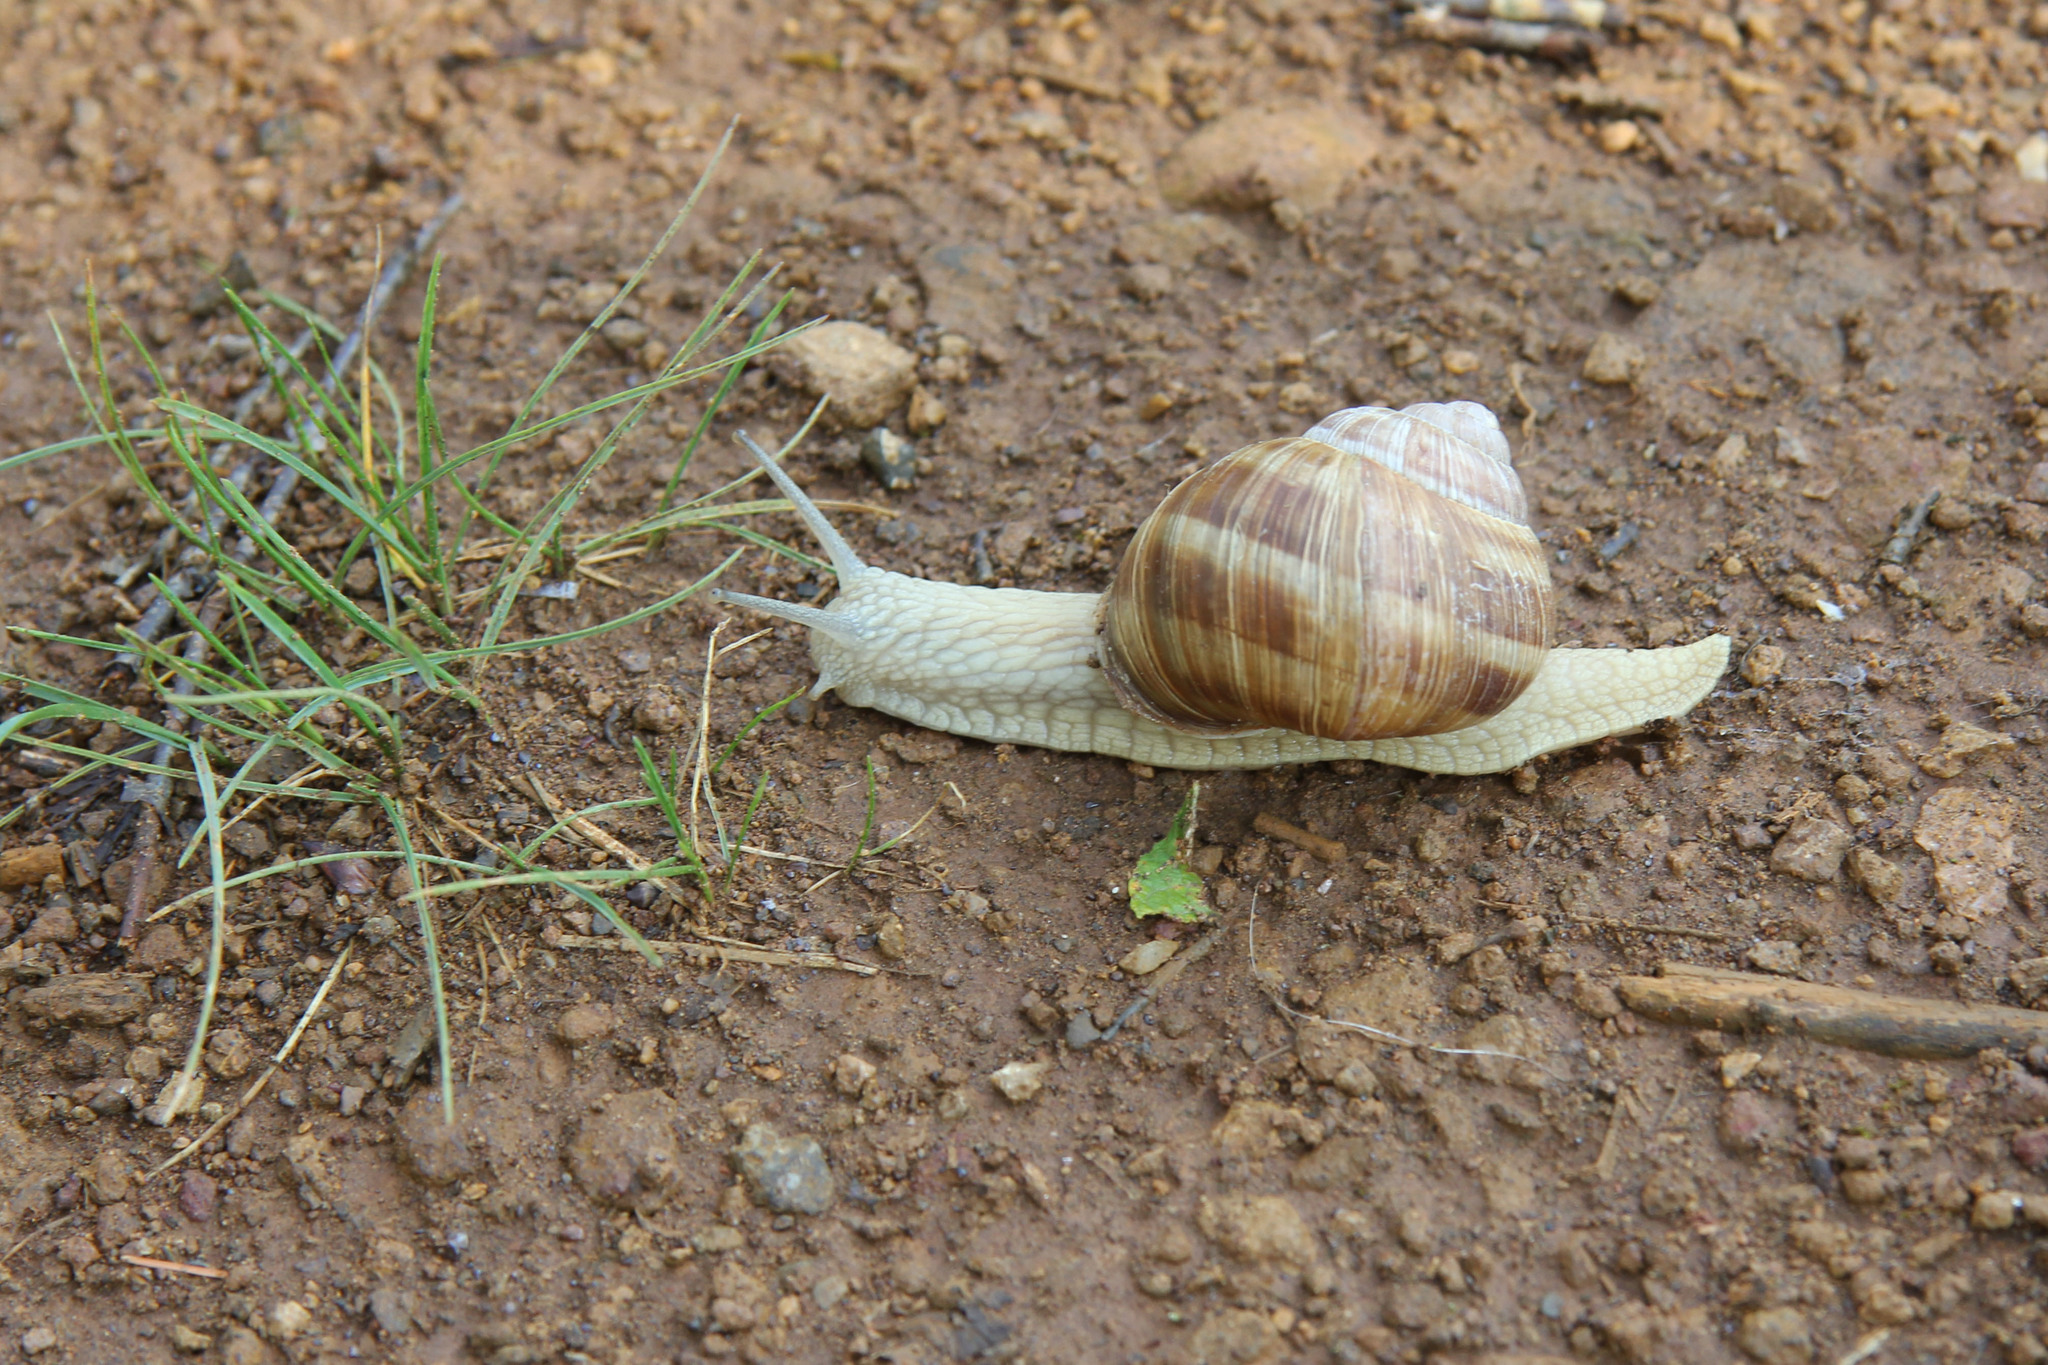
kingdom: Animalia
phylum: Mollusca
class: Gastropoda
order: Stylommatophora
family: Helicidae
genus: Helix
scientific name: Helix pomatia
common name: Roman snail
